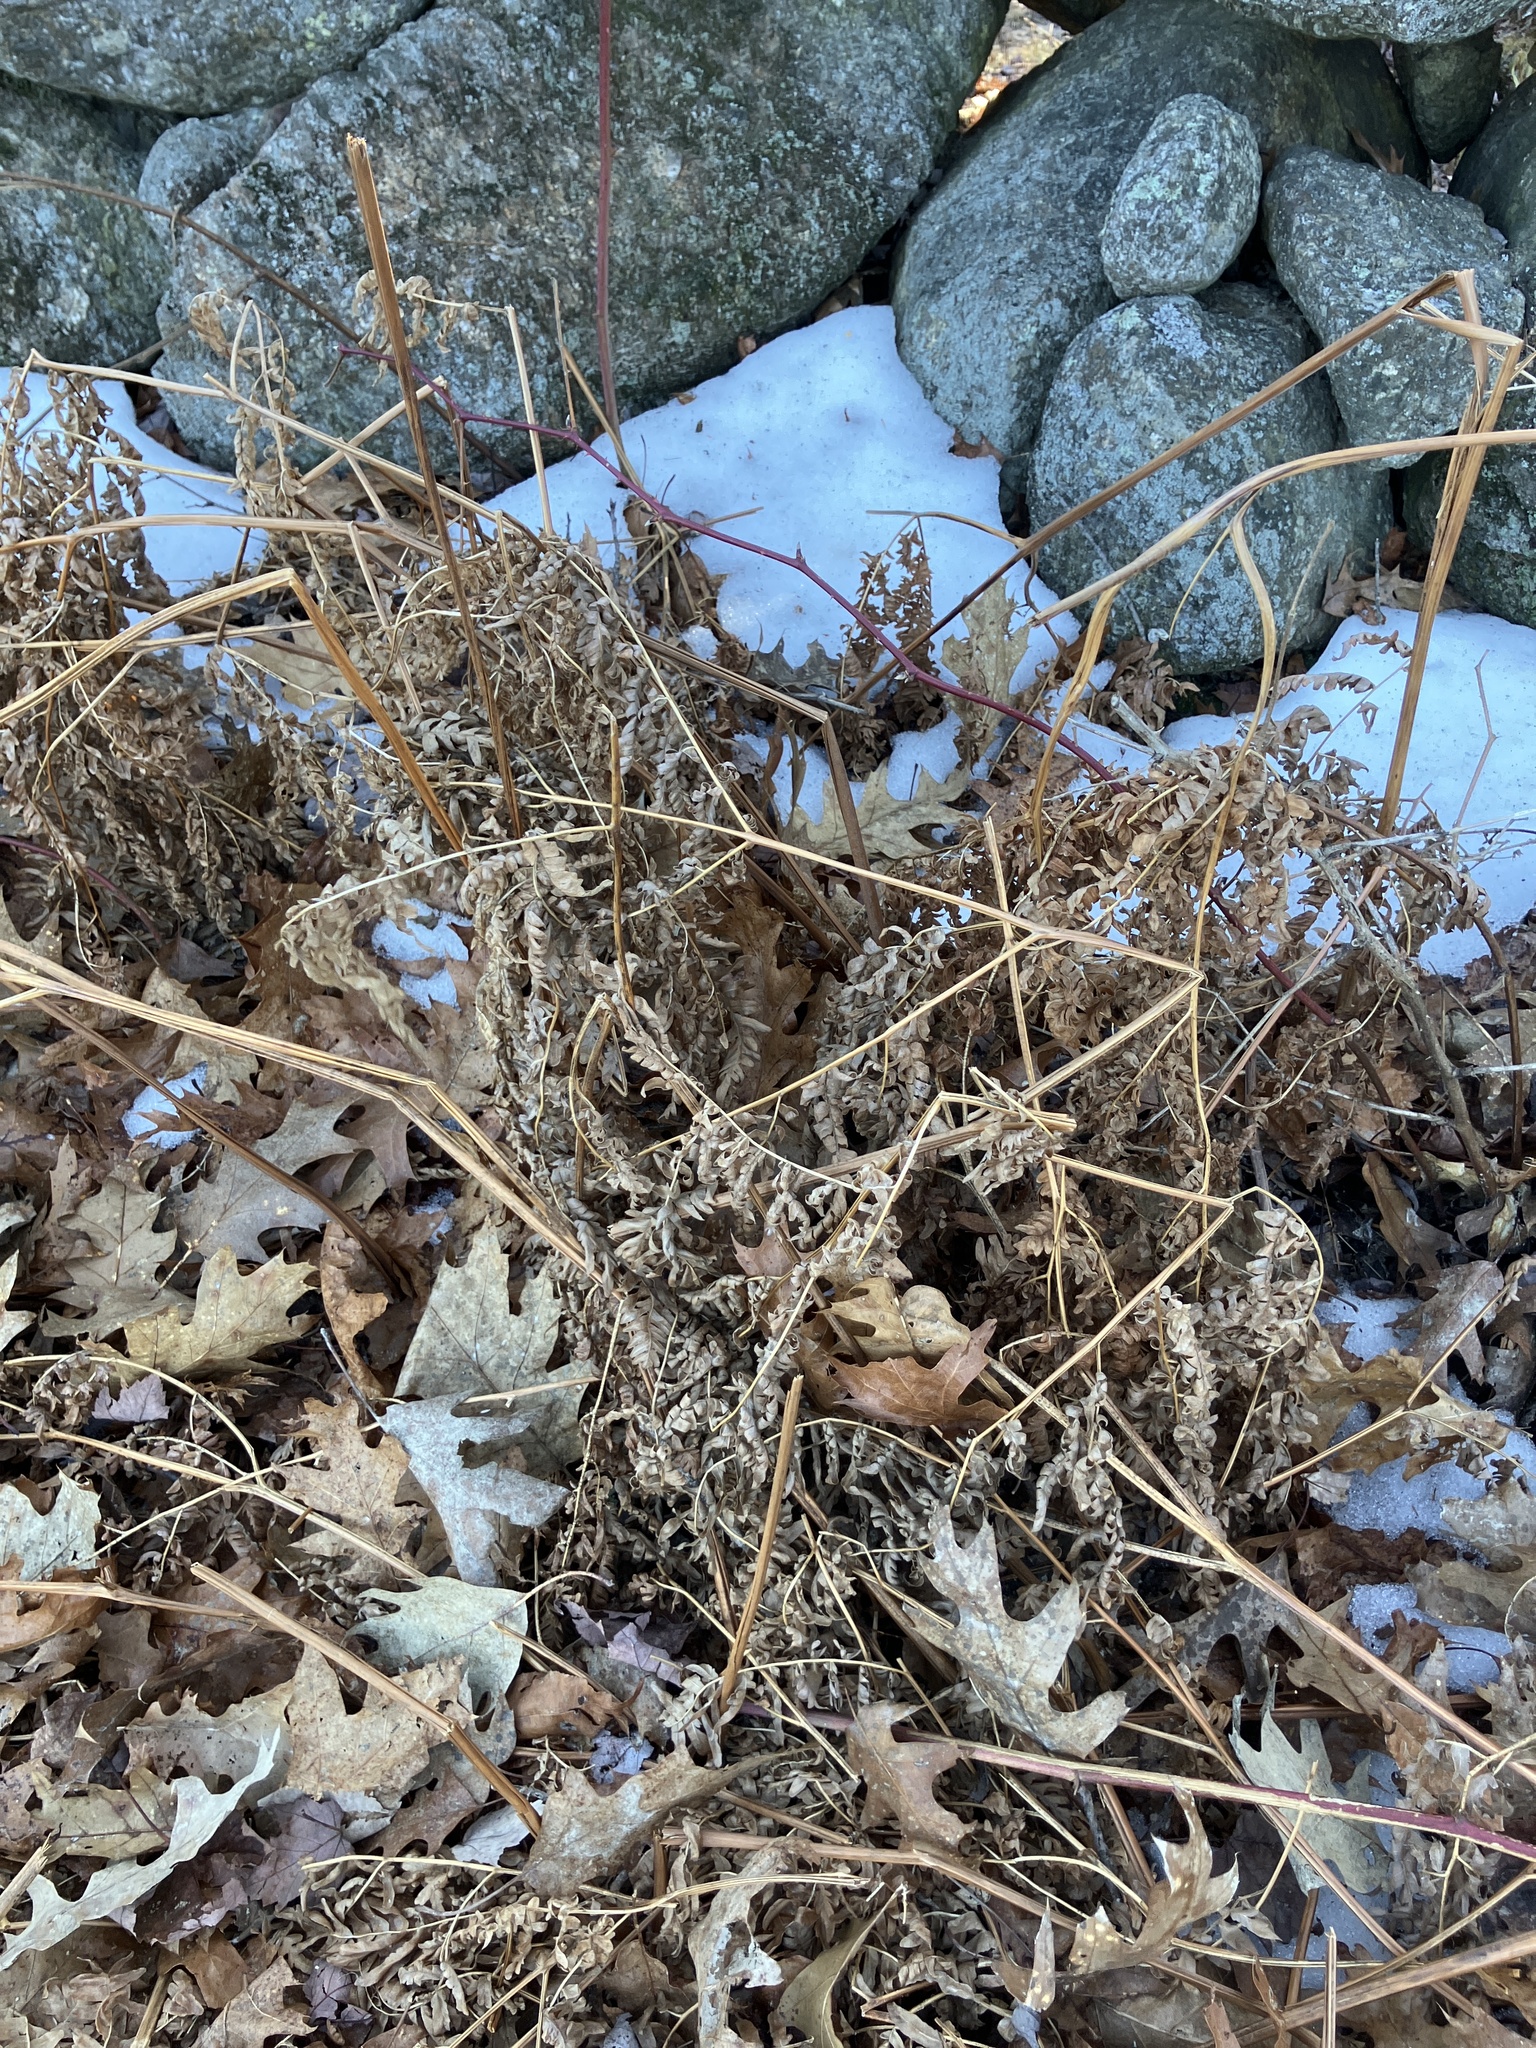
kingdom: Plantae
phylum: Tracheophyta
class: Polypodiopsida
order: Polypodiales
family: Dennstaedtiaceae
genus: Pteridium
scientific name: Pteridium aquilinum
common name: Bracken
